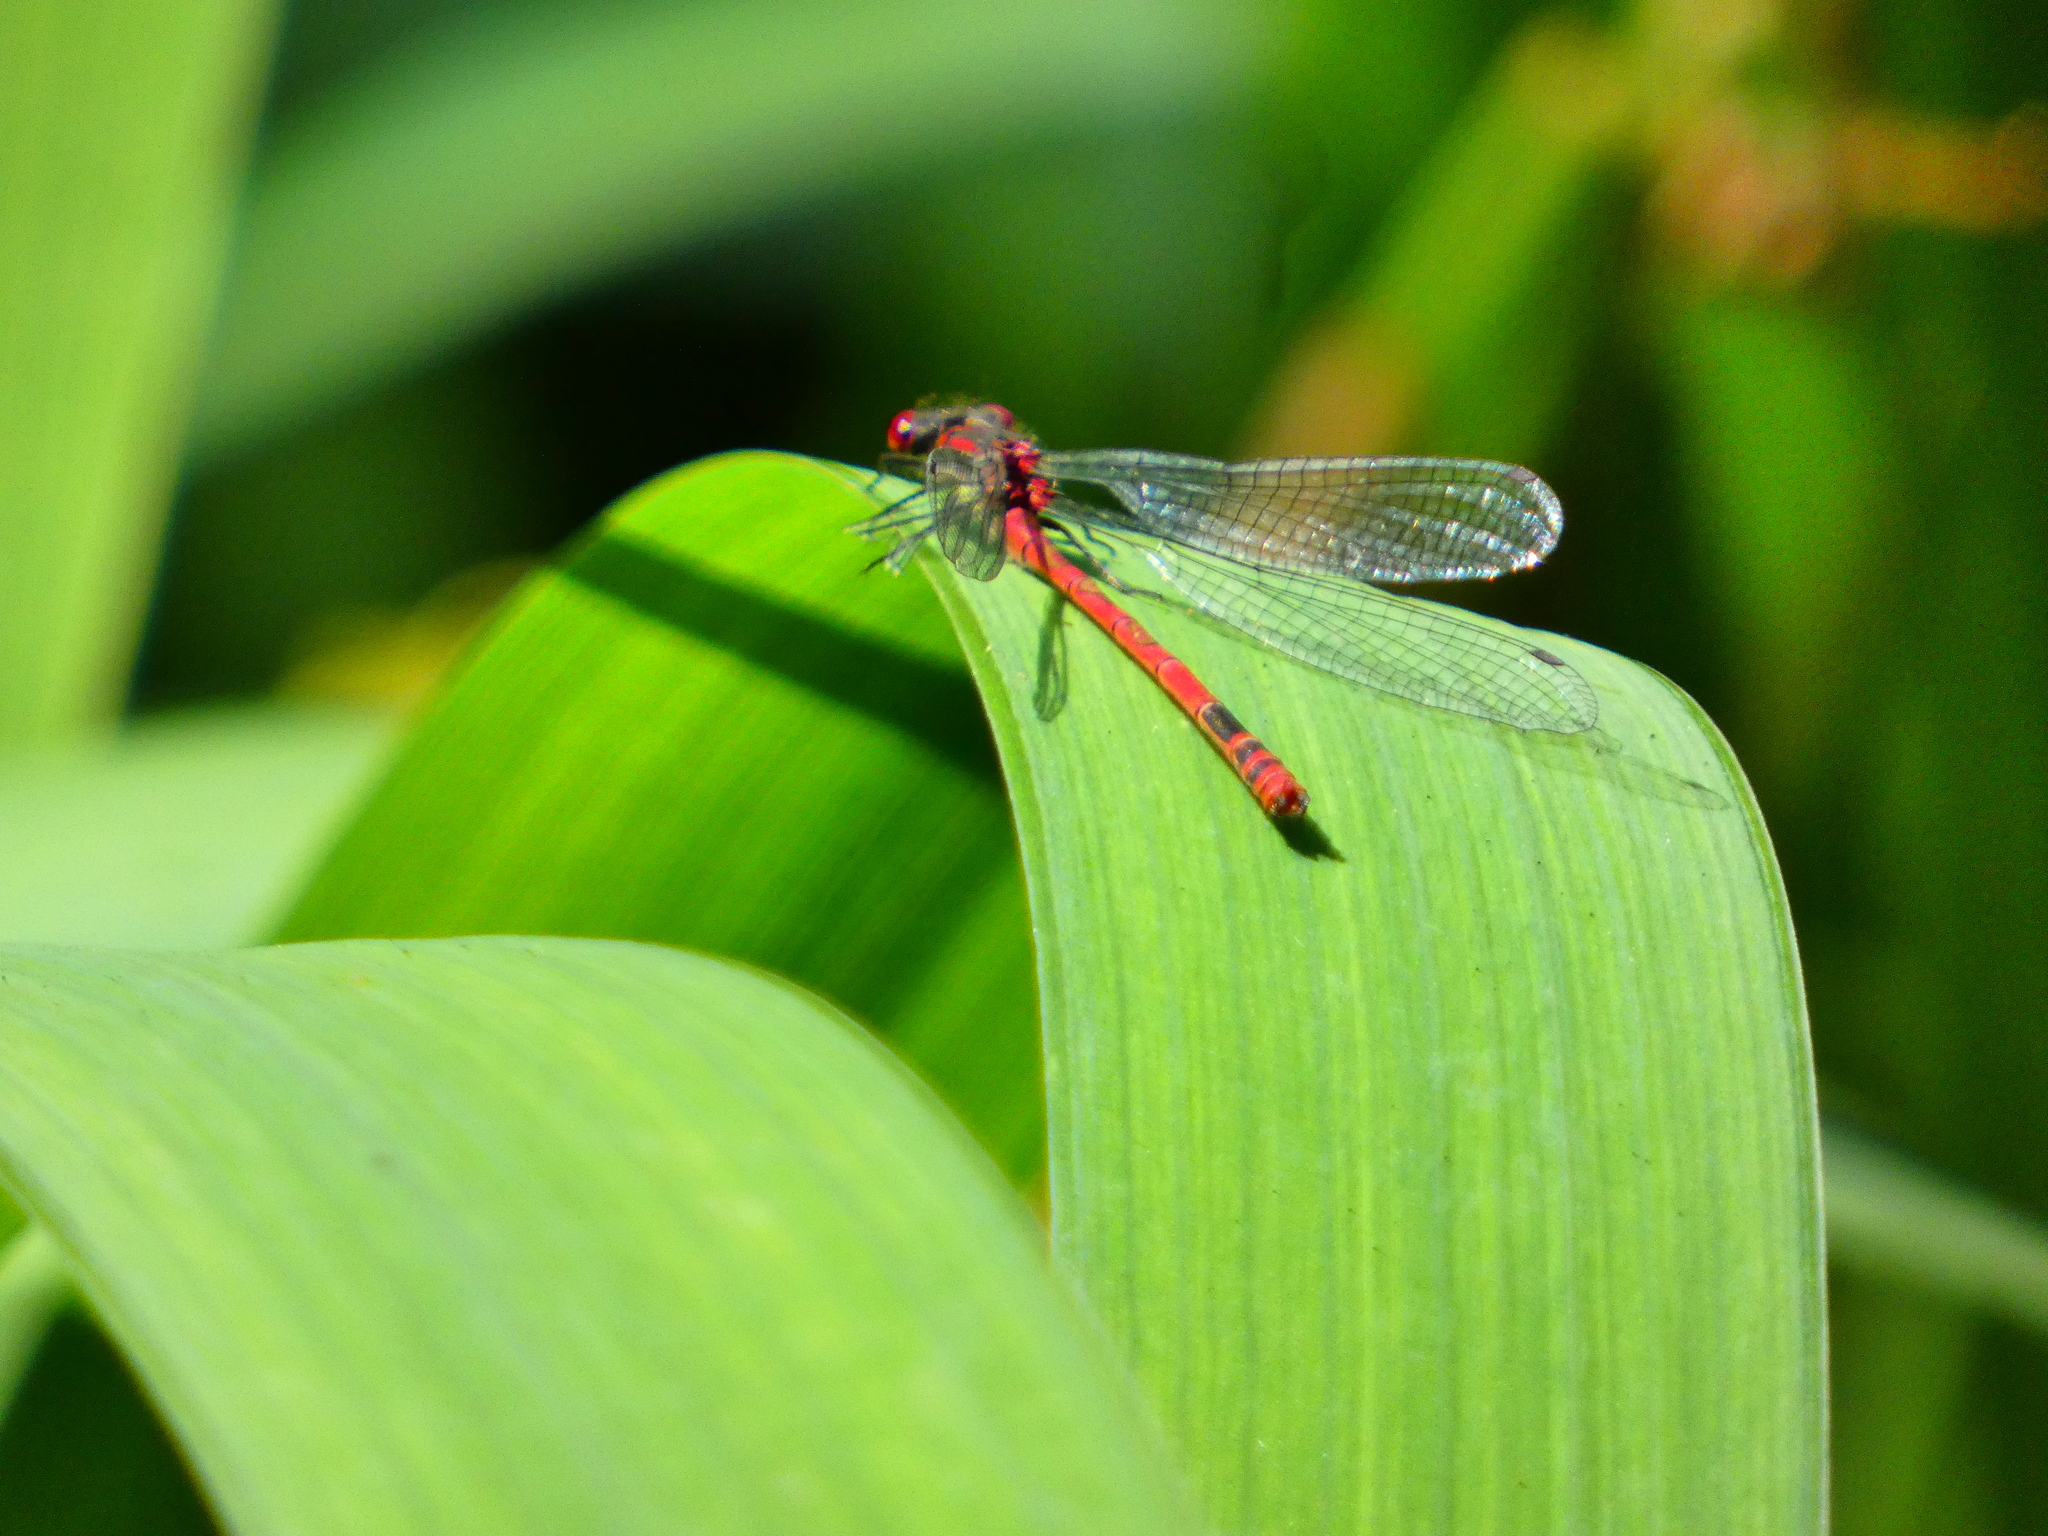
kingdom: Animalia
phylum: Arthropoda
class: Insecta
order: Odonata
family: Coenagrionidae
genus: Pyrrhosoma
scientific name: Pyrrhosoma nymphula
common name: Large red damsel
